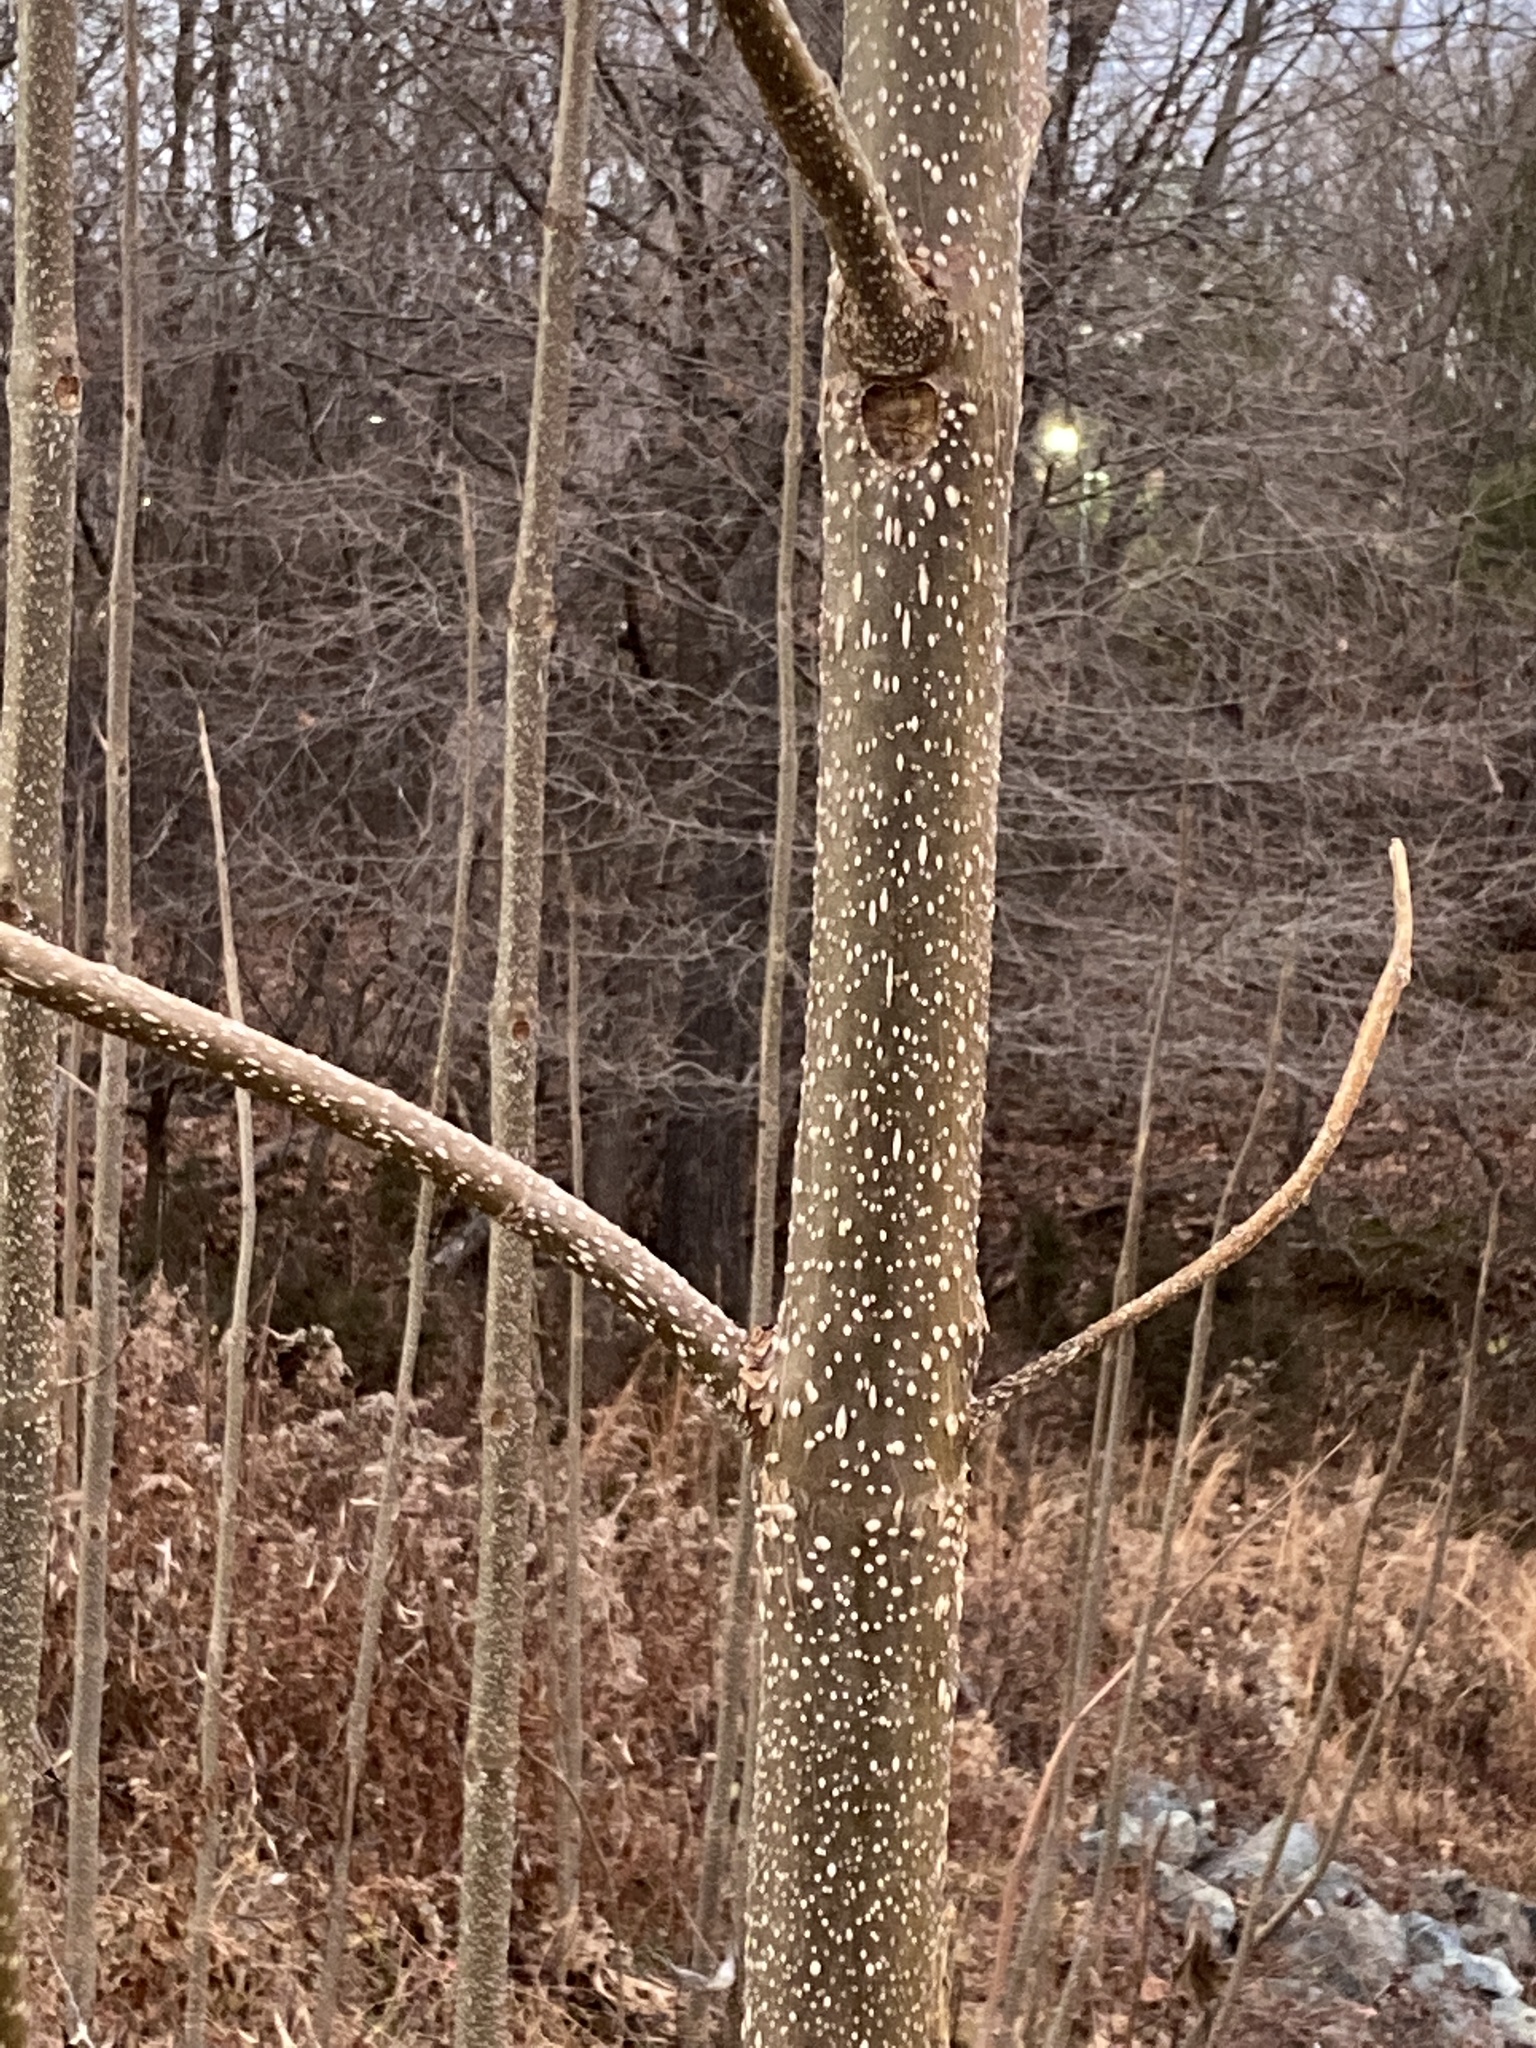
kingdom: Plantae
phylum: Tracheophyta
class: Magnoliopsida
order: Lamiales
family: Paulowniaceae
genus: Paulownia
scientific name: Paulownia tomentosa
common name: Foxglove-tree
